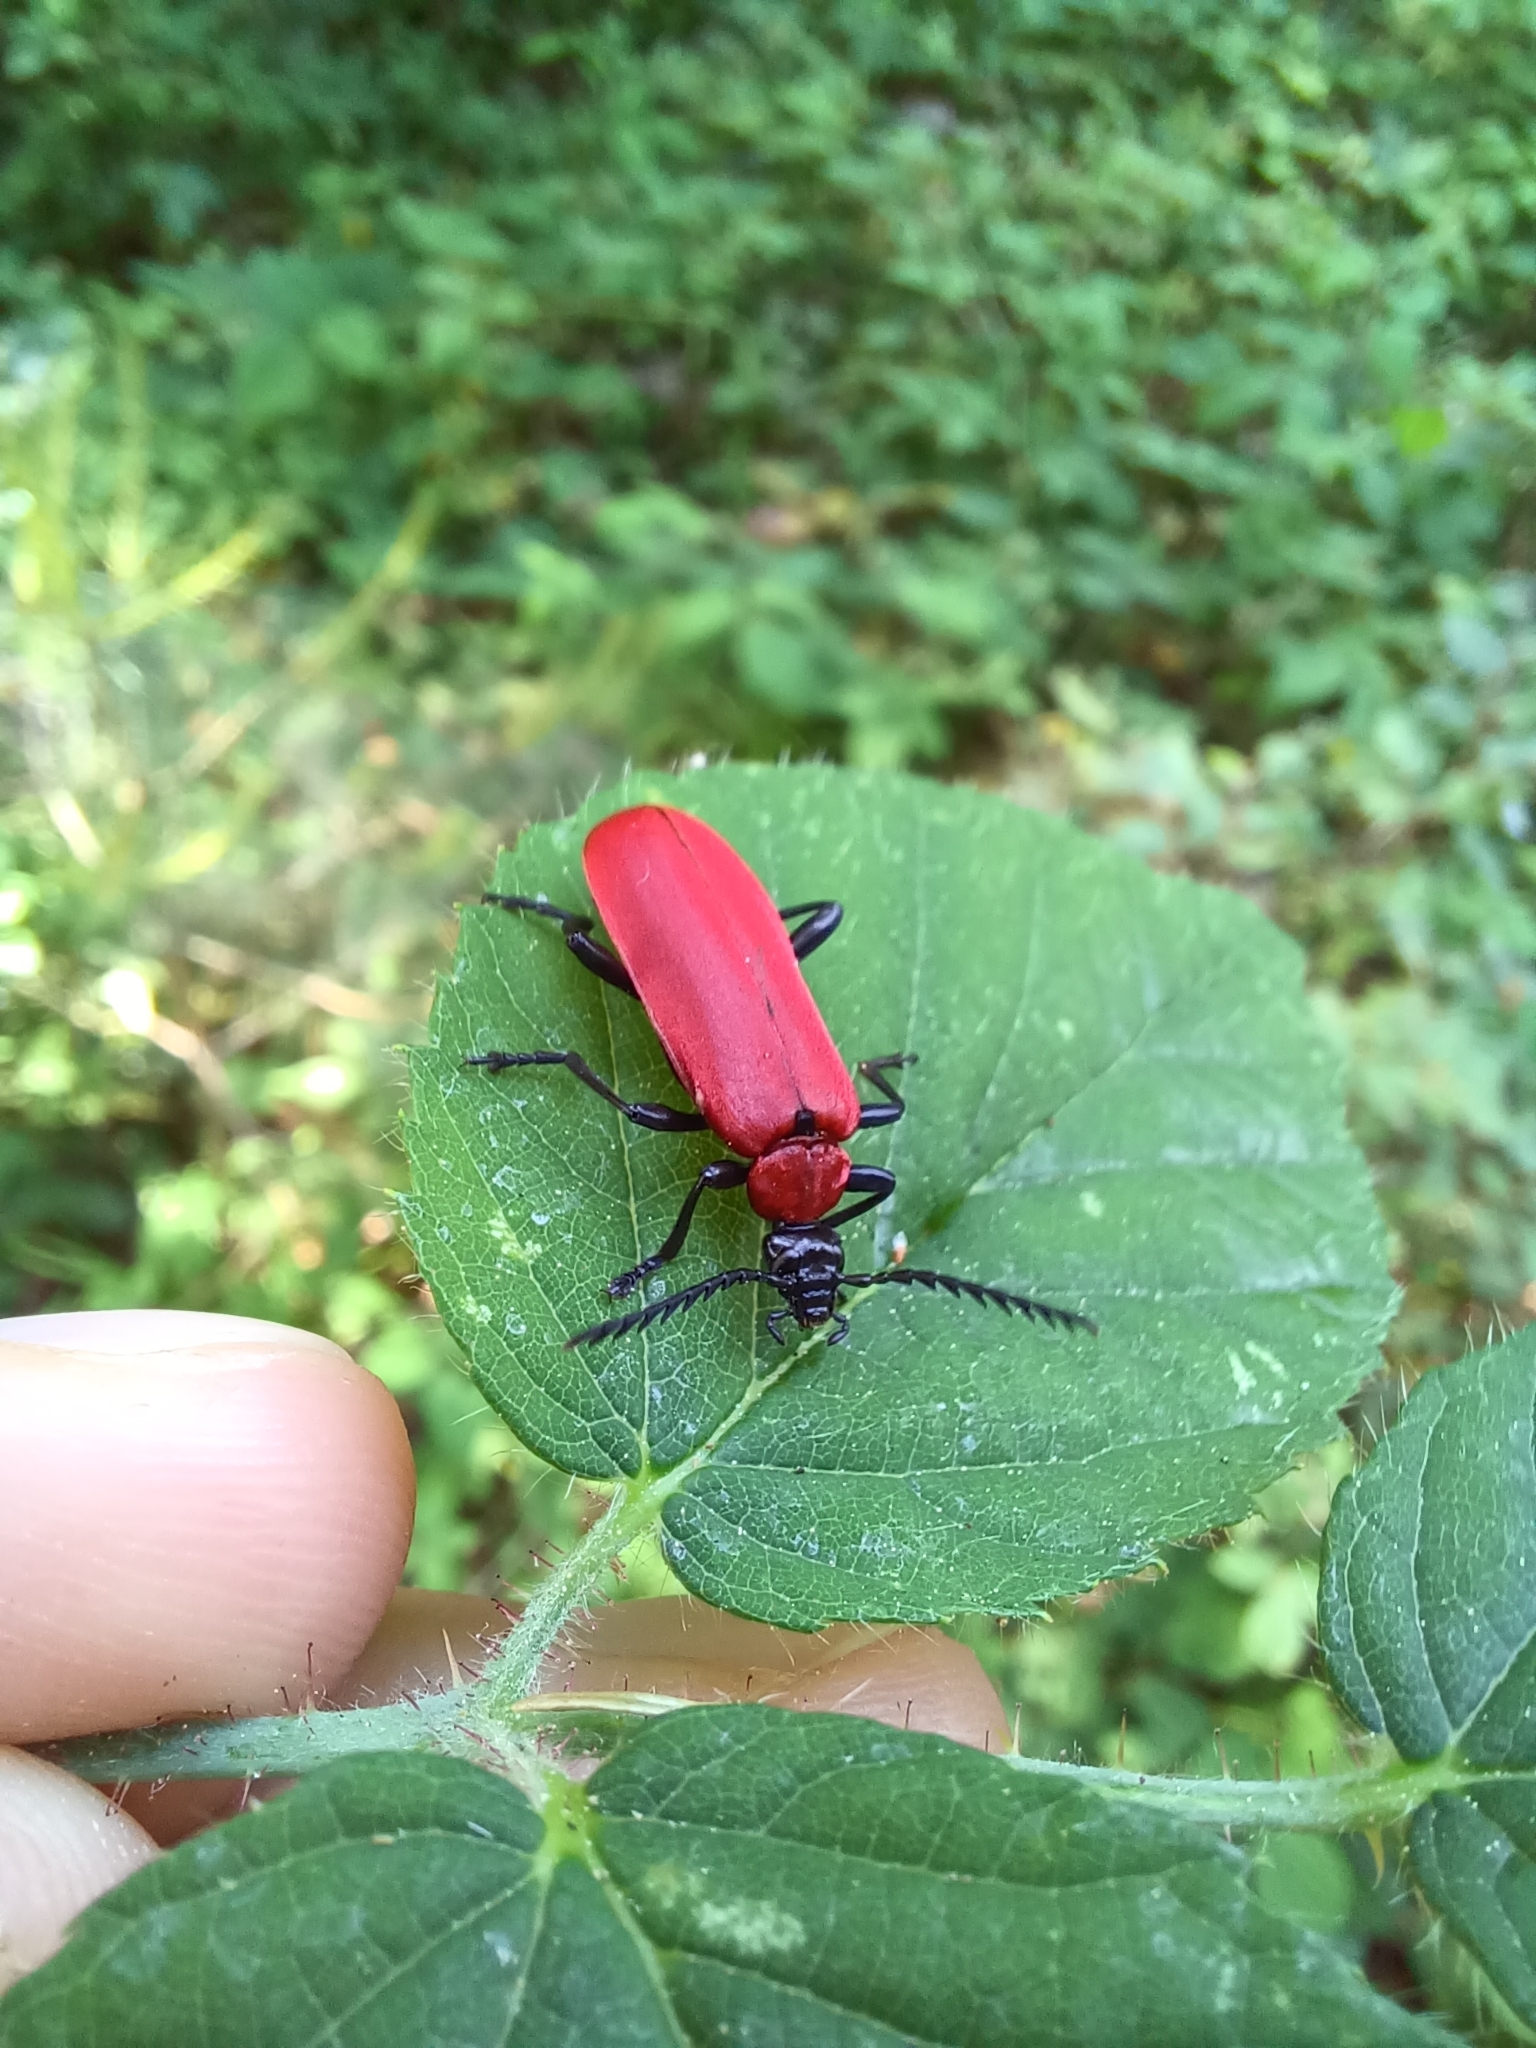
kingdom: Animalia
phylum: Arthropoda
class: Insecta
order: Coleoptera
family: Pyrochroidae
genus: Pyrochroa
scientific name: Pyrochroa coccinea
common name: Black-headed cardinal beetle
